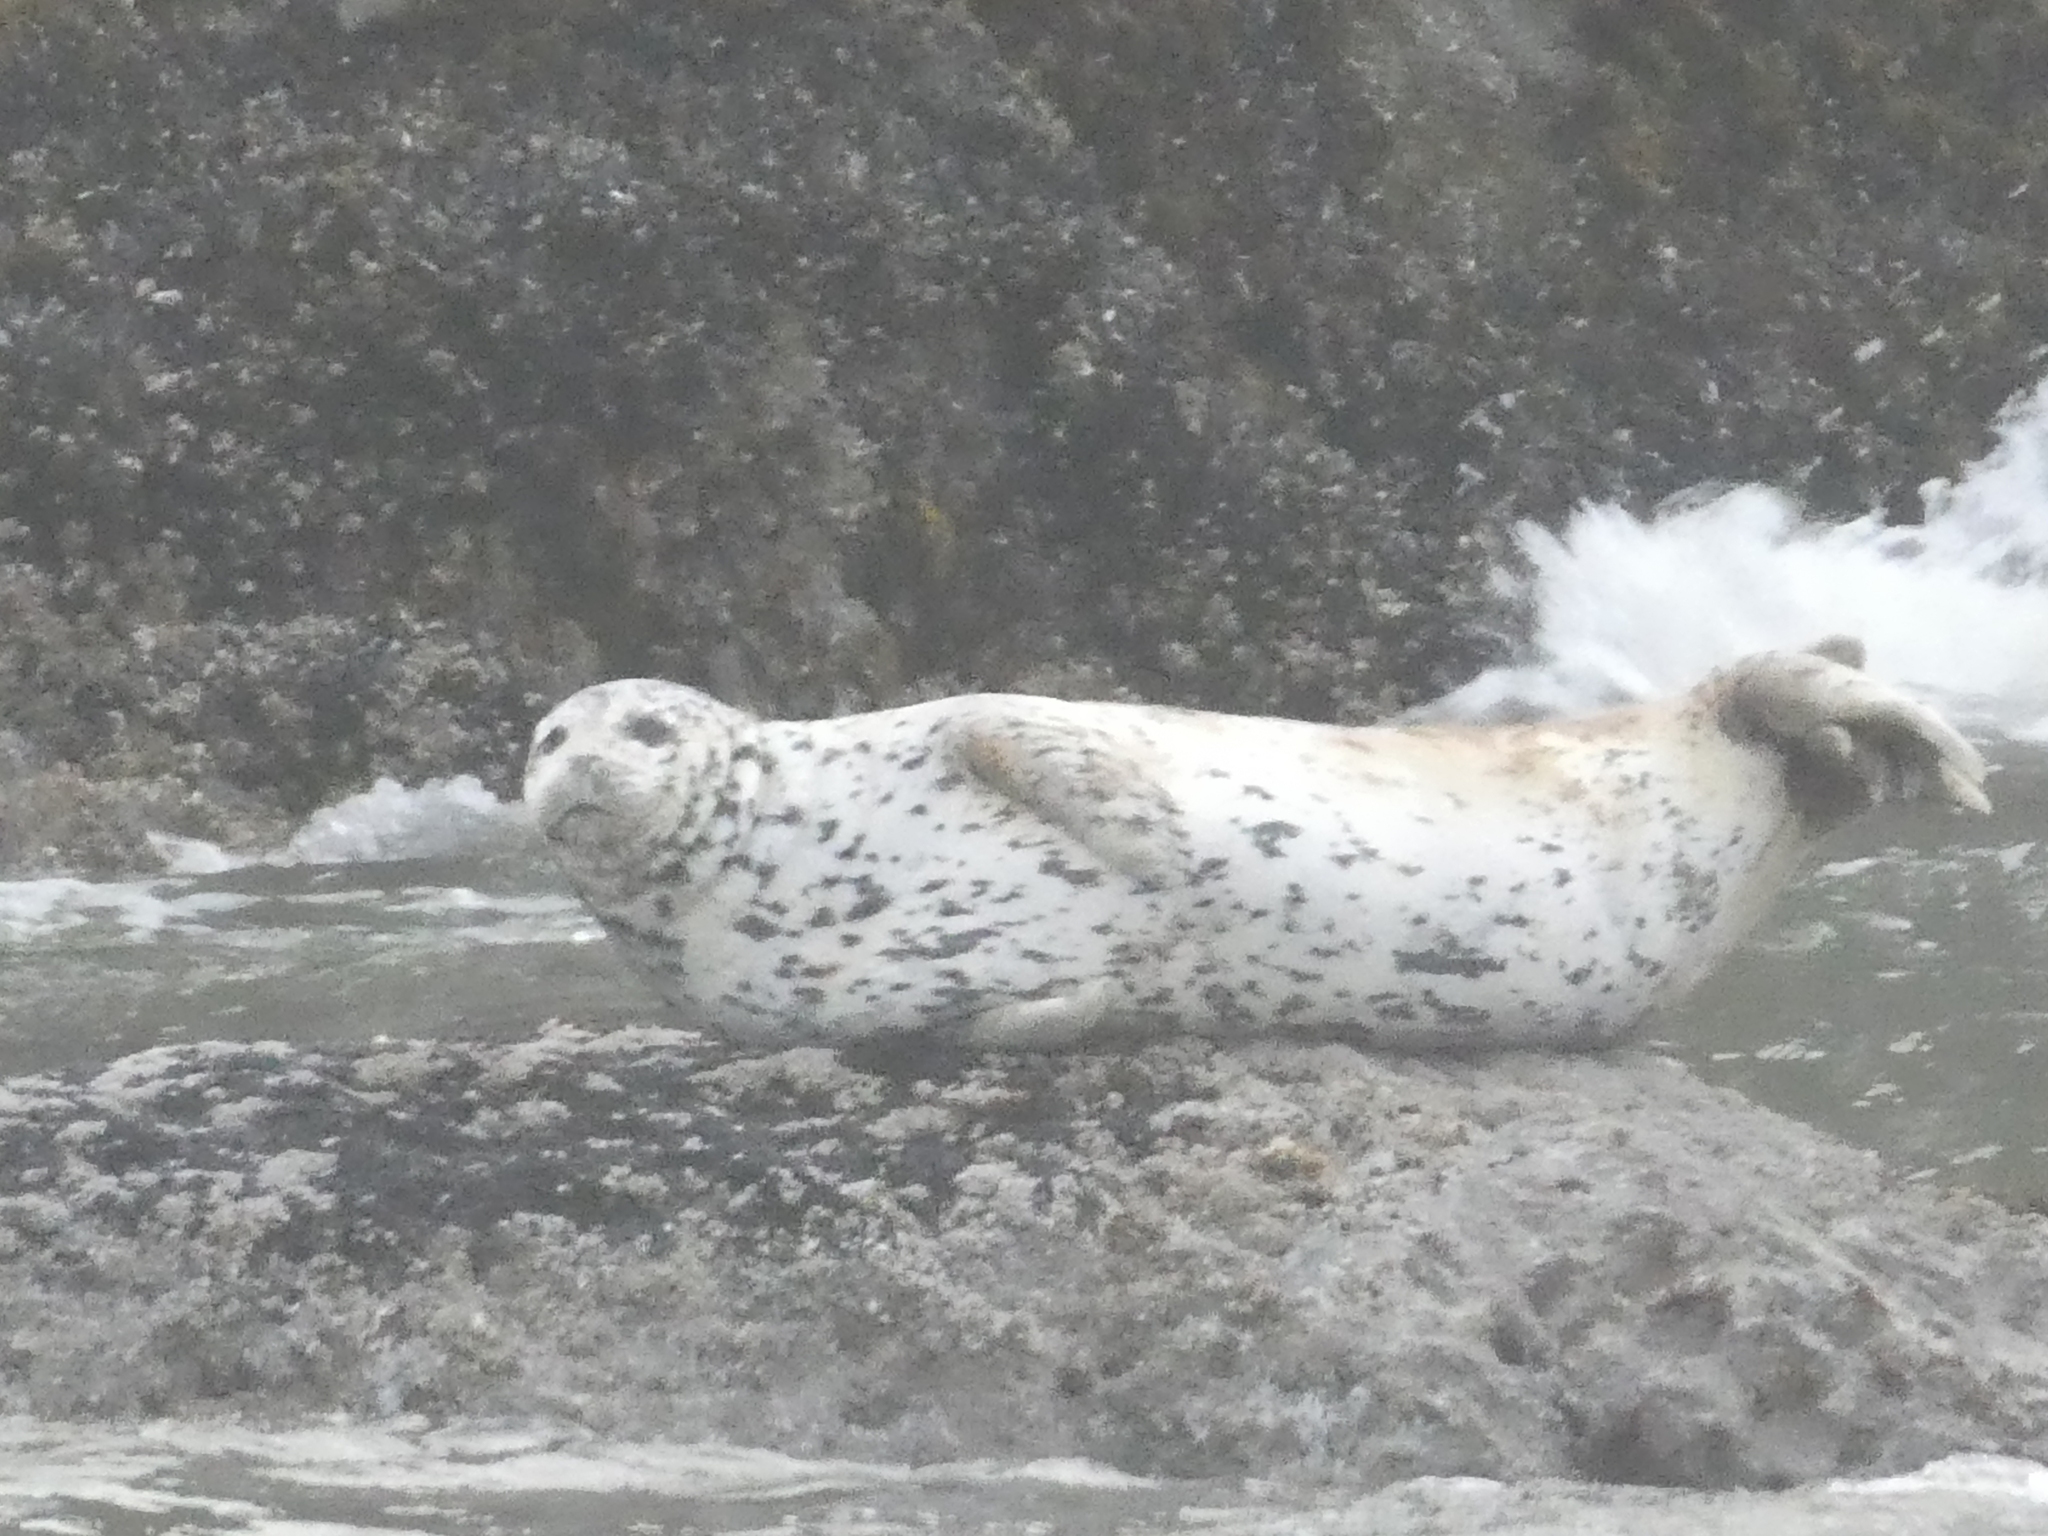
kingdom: Animalia
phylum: Chordata
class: Mammalia
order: Carnivora
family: Phocidae
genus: Phoca
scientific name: Phoca vitulina
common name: Harbor seal
